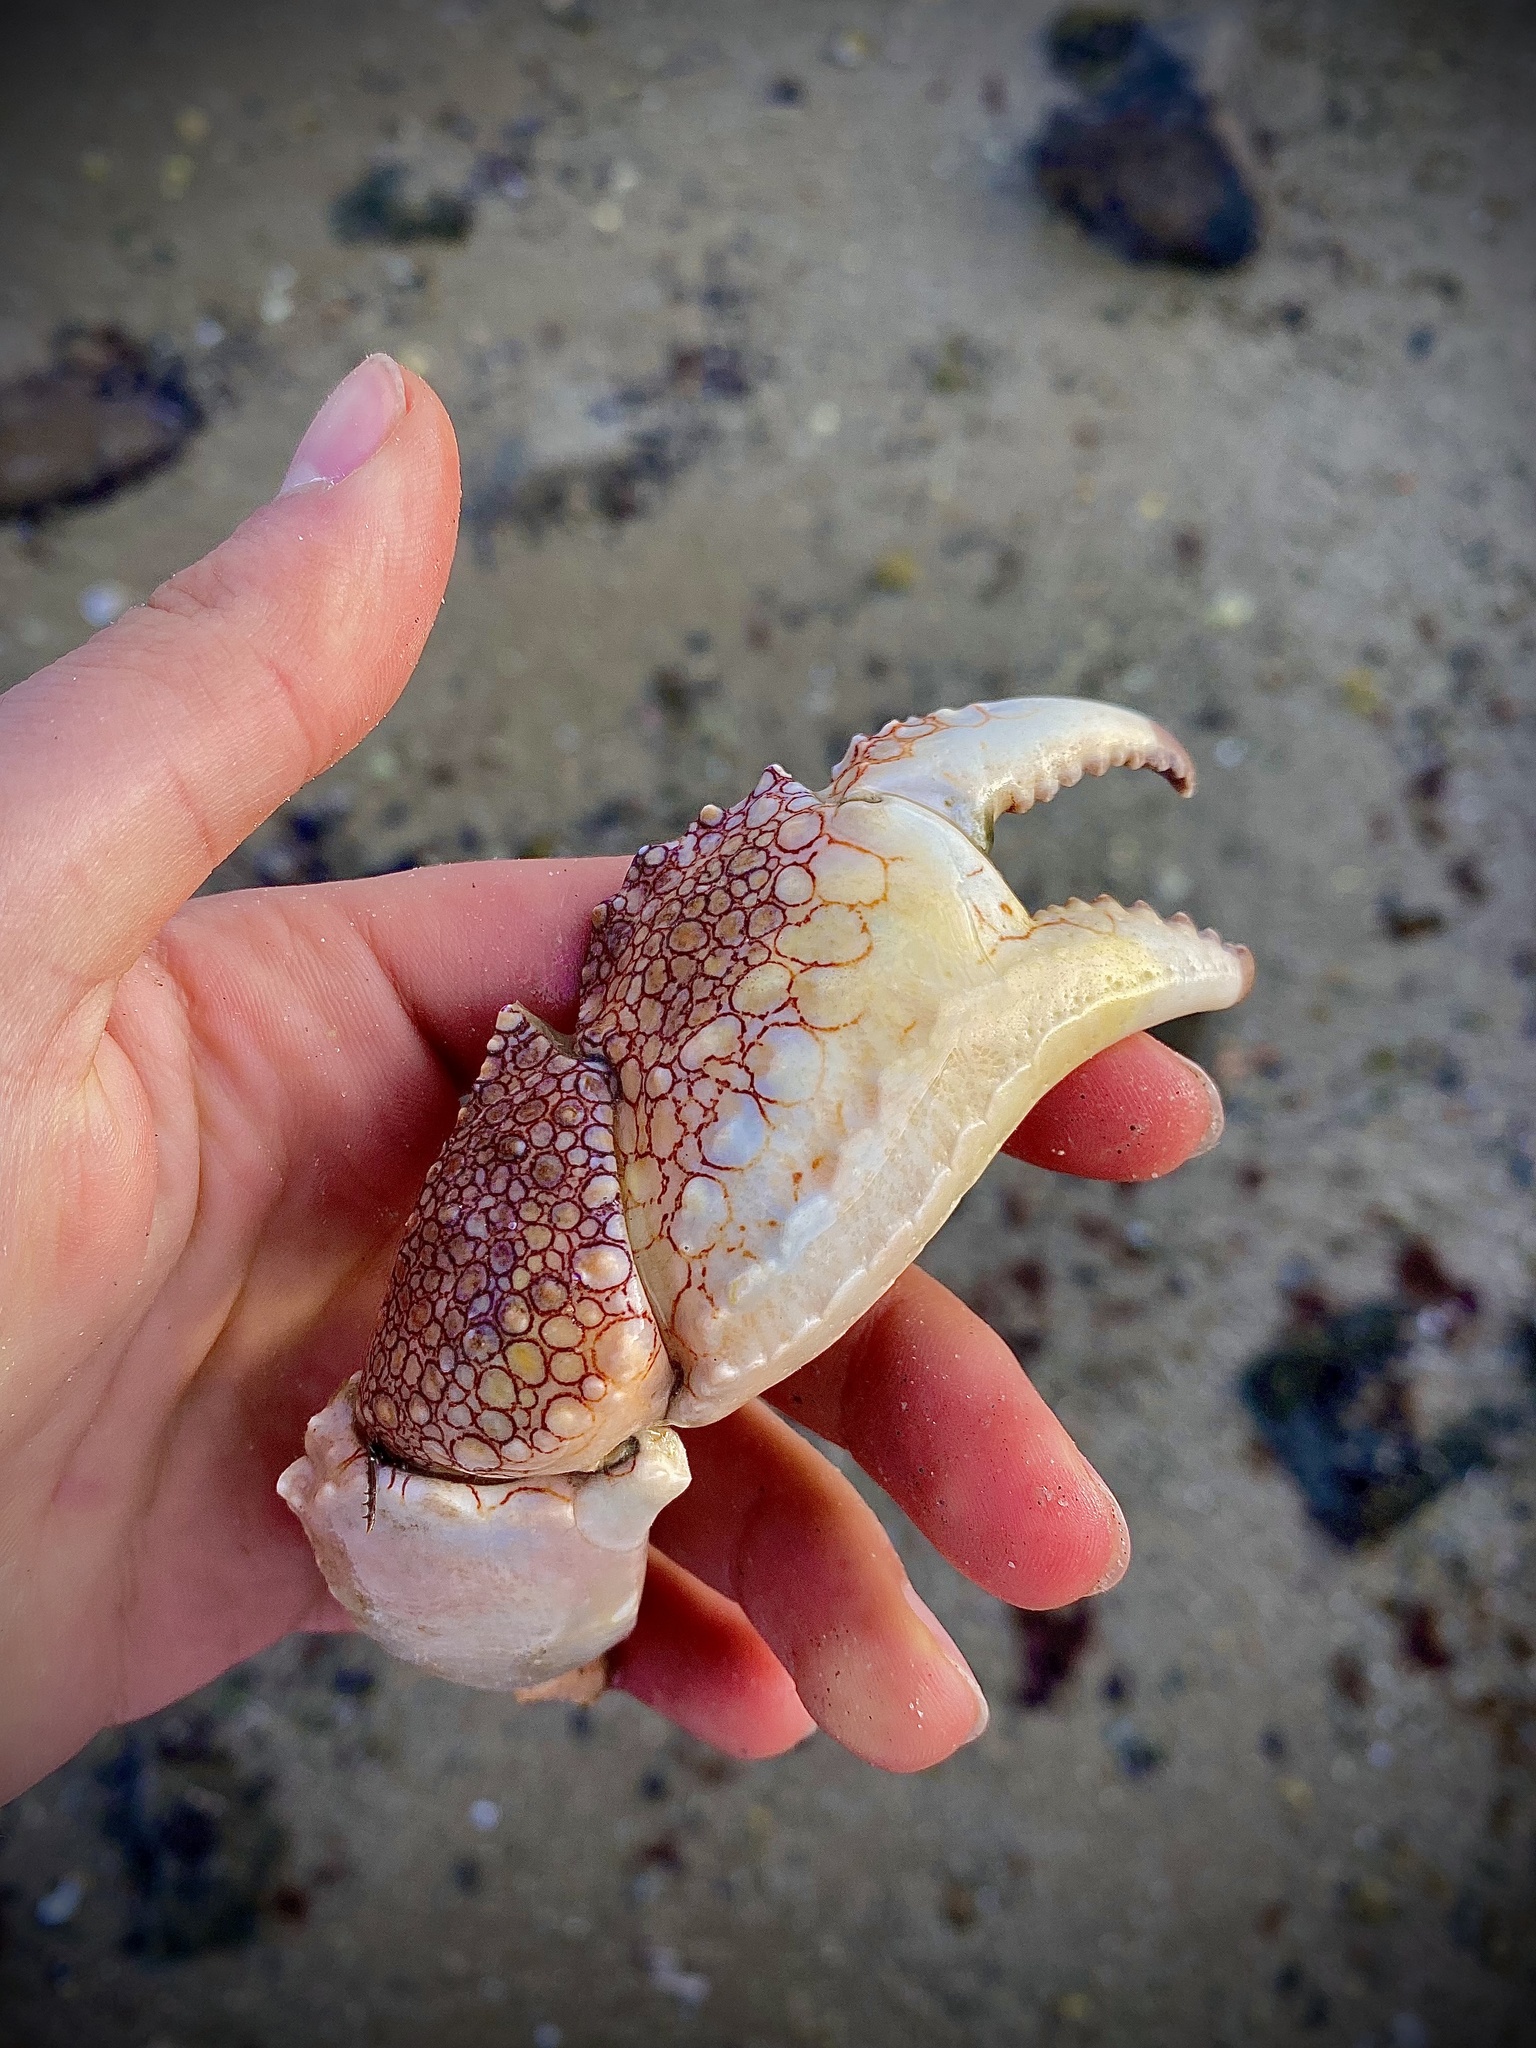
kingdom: Animalia
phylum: Arthropoda
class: Malacostraca
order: Decapoda
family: Aethridae
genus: Hepatus
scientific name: Hepatus lineatus
